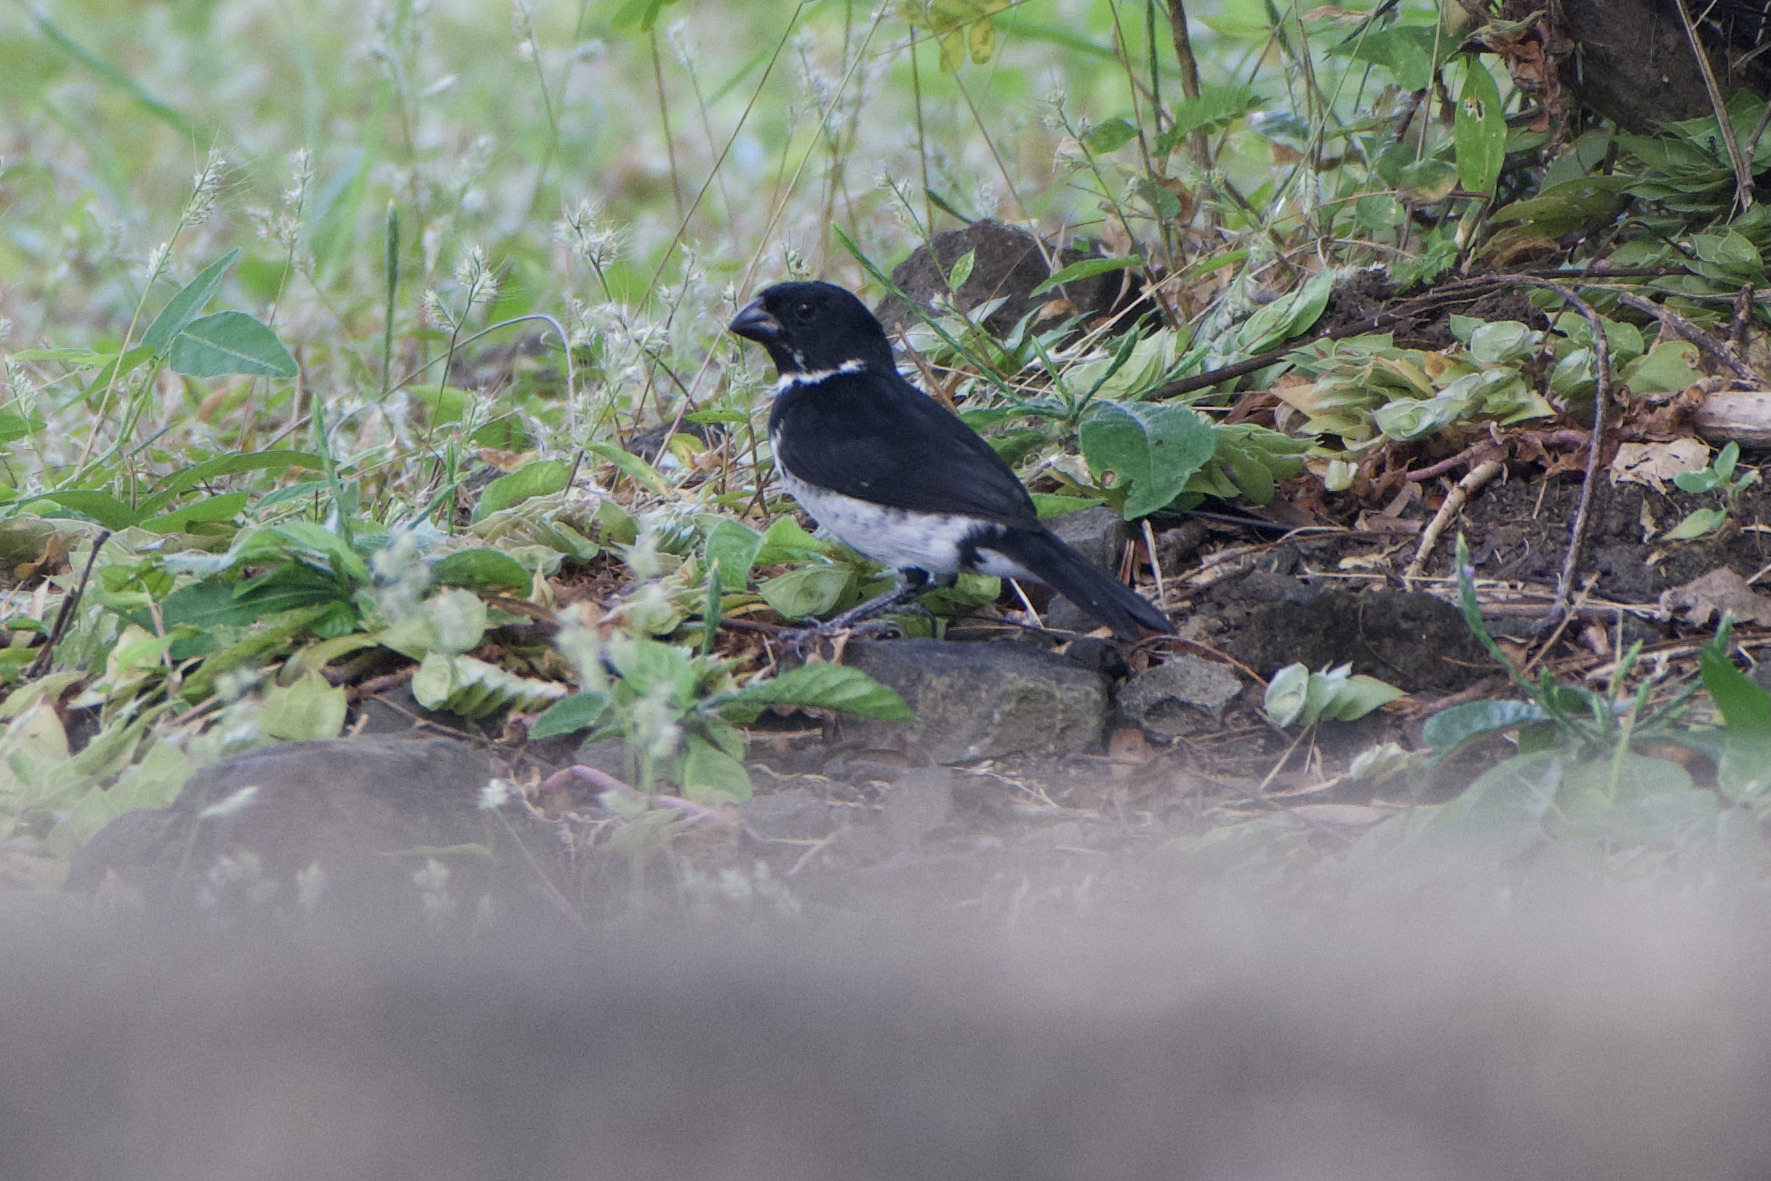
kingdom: Animalia
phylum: Chordata
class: Aves
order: Passeriformes
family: Thraupidae
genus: Sporophila
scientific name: Sporophila corvina
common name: Variable seedeater
